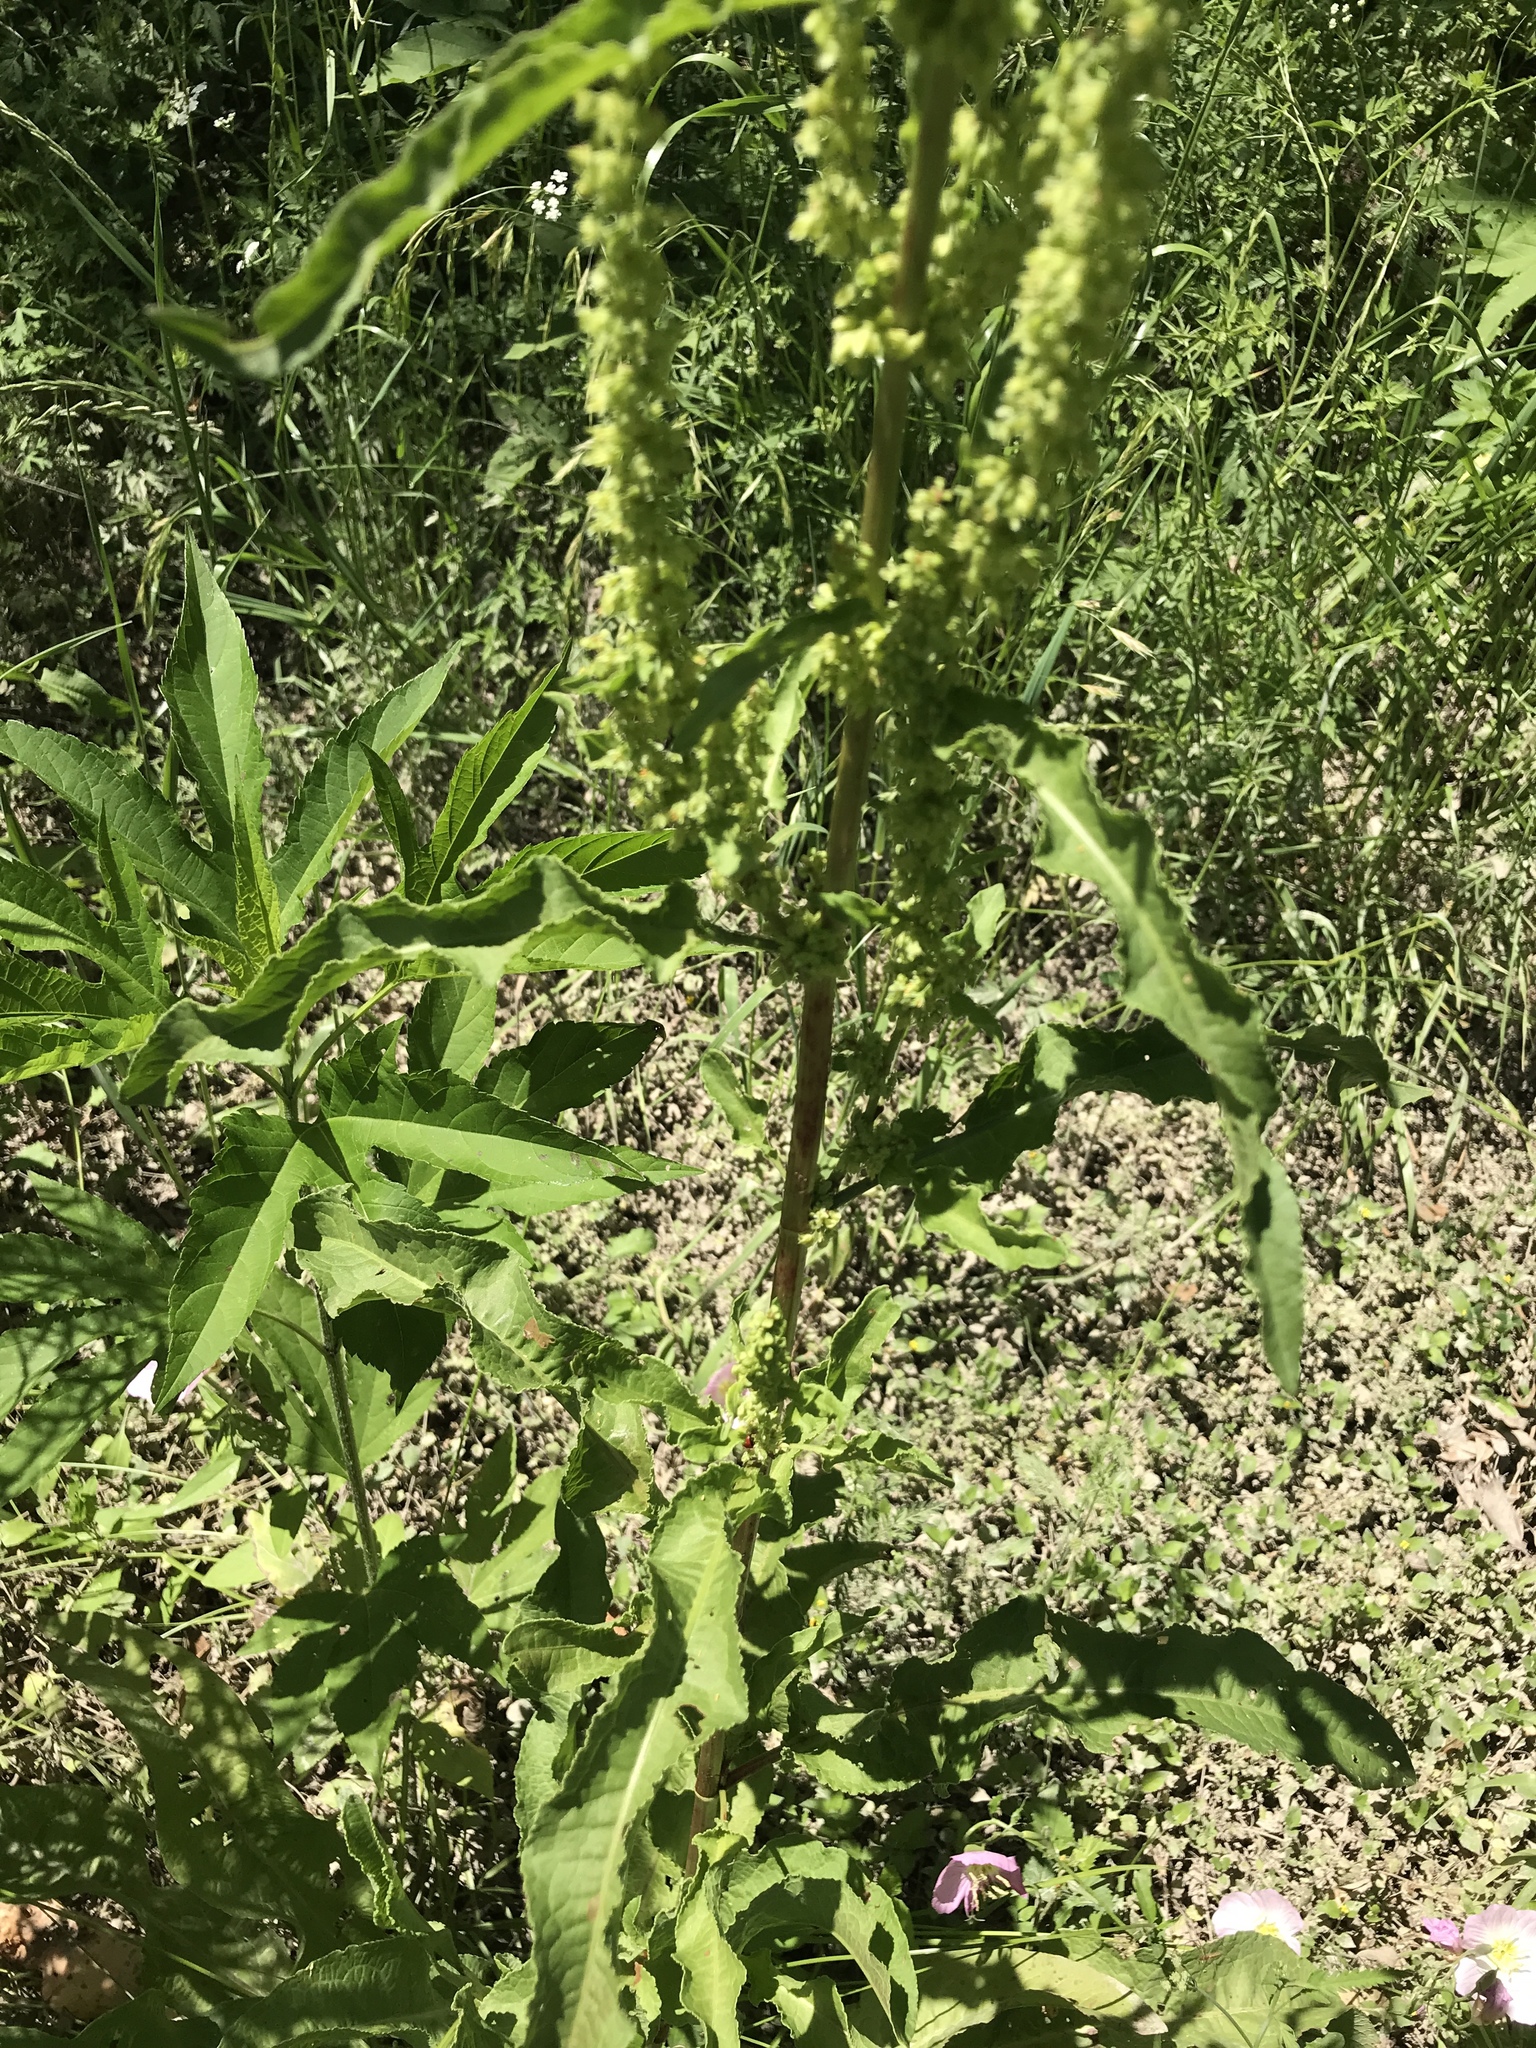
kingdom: Plantae
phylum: Tracheophyta
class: Magnoliopsida
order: Caryophyllales
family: Polygonaceae
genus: Rumex
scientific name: Rumex crispus
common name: Curled dock
